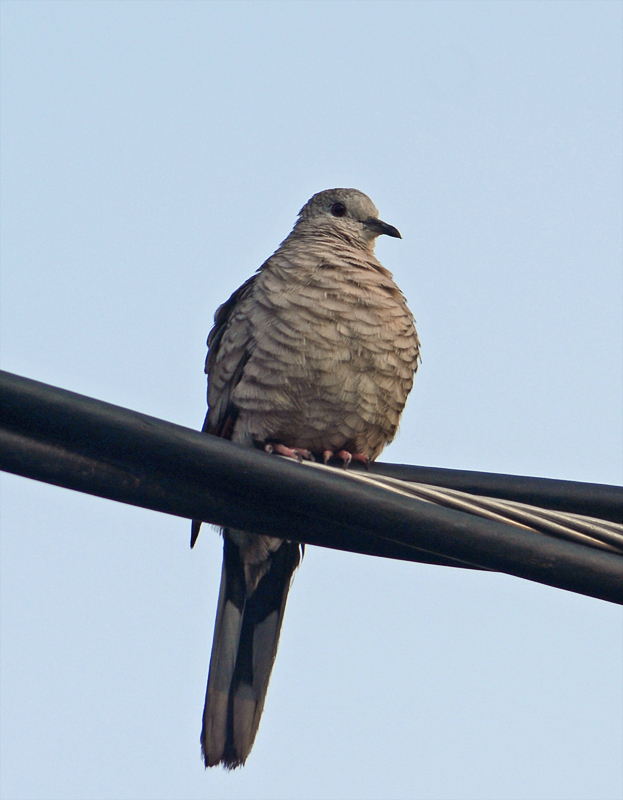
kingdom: Animalia
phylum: Chordata
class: Aves
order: Columbiformes
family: Columbidae
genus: Columbina
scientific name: Columbina inca
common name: Inca dove
